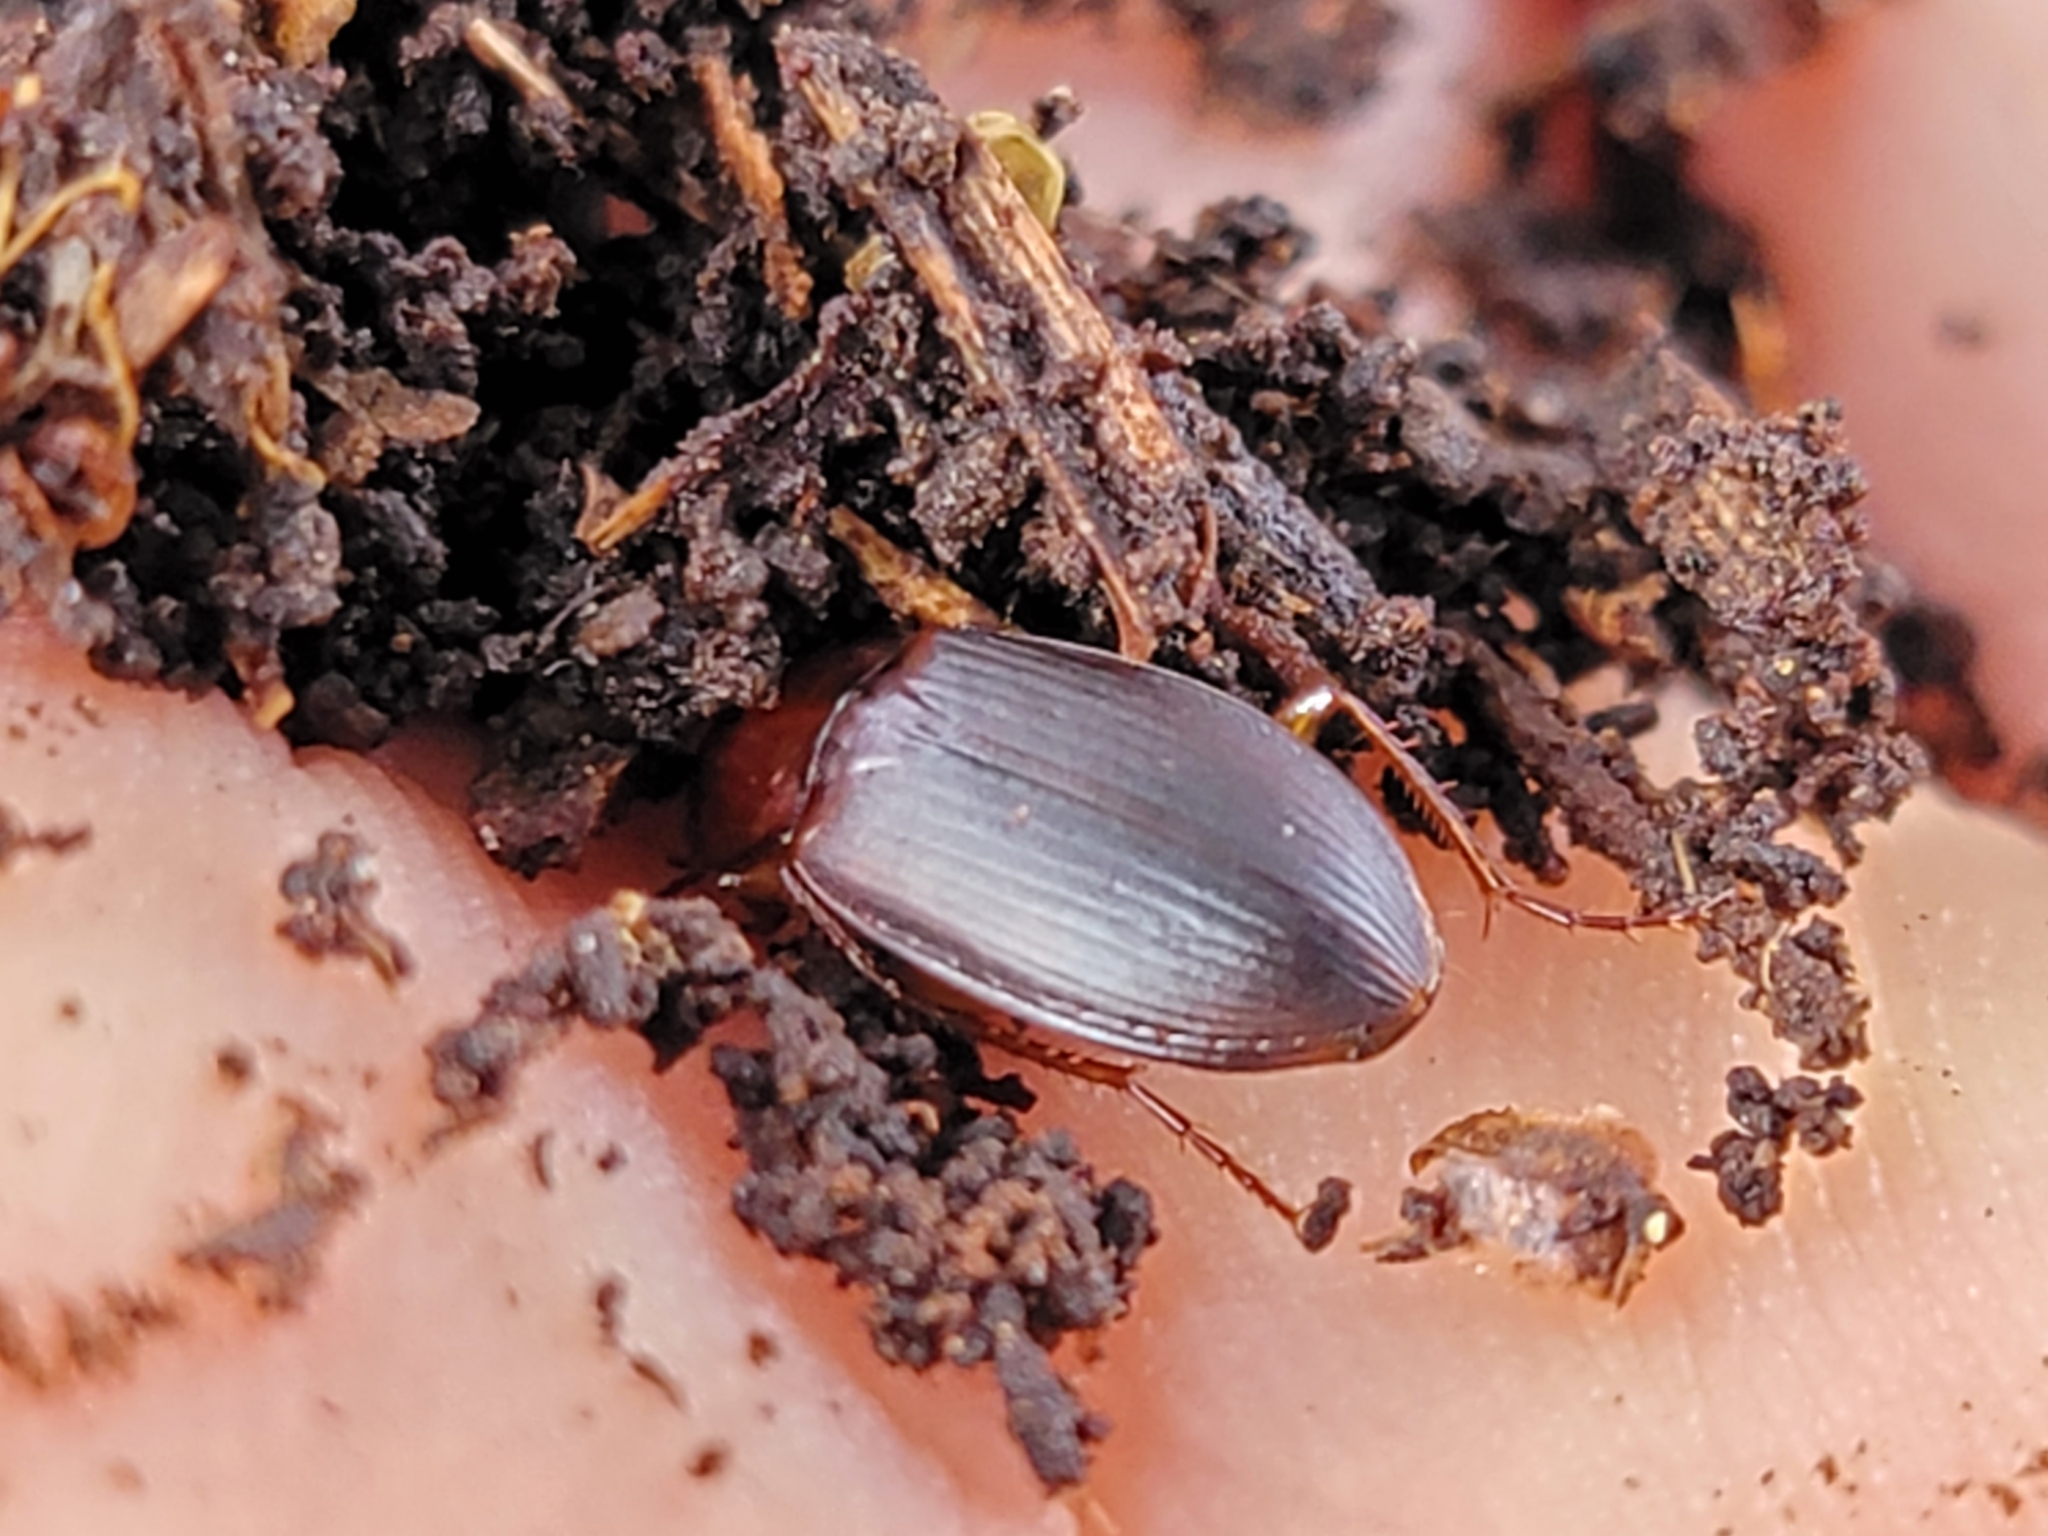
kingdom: Animalia
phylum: Arthropoda
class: Insecta
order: Coleoptera
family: Carabidae
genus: Calathus
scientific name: Calathus ruficollis
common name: Red-collared harp ground beetle
